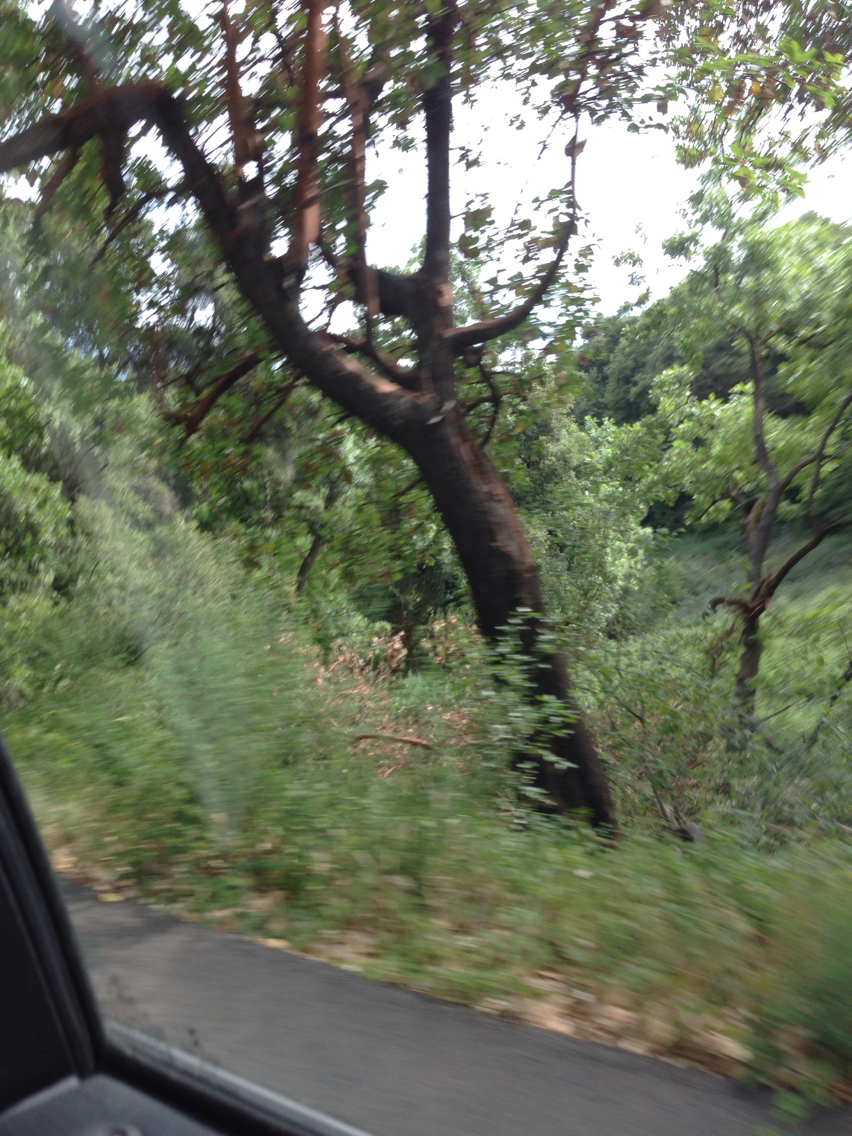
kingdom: Plantae
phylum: Tracheophyta
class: Magnoliopsida
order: Ericales
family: Ericaceae
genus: Arbutus
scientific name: Arbutus menziesii
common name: Pacific madrone
